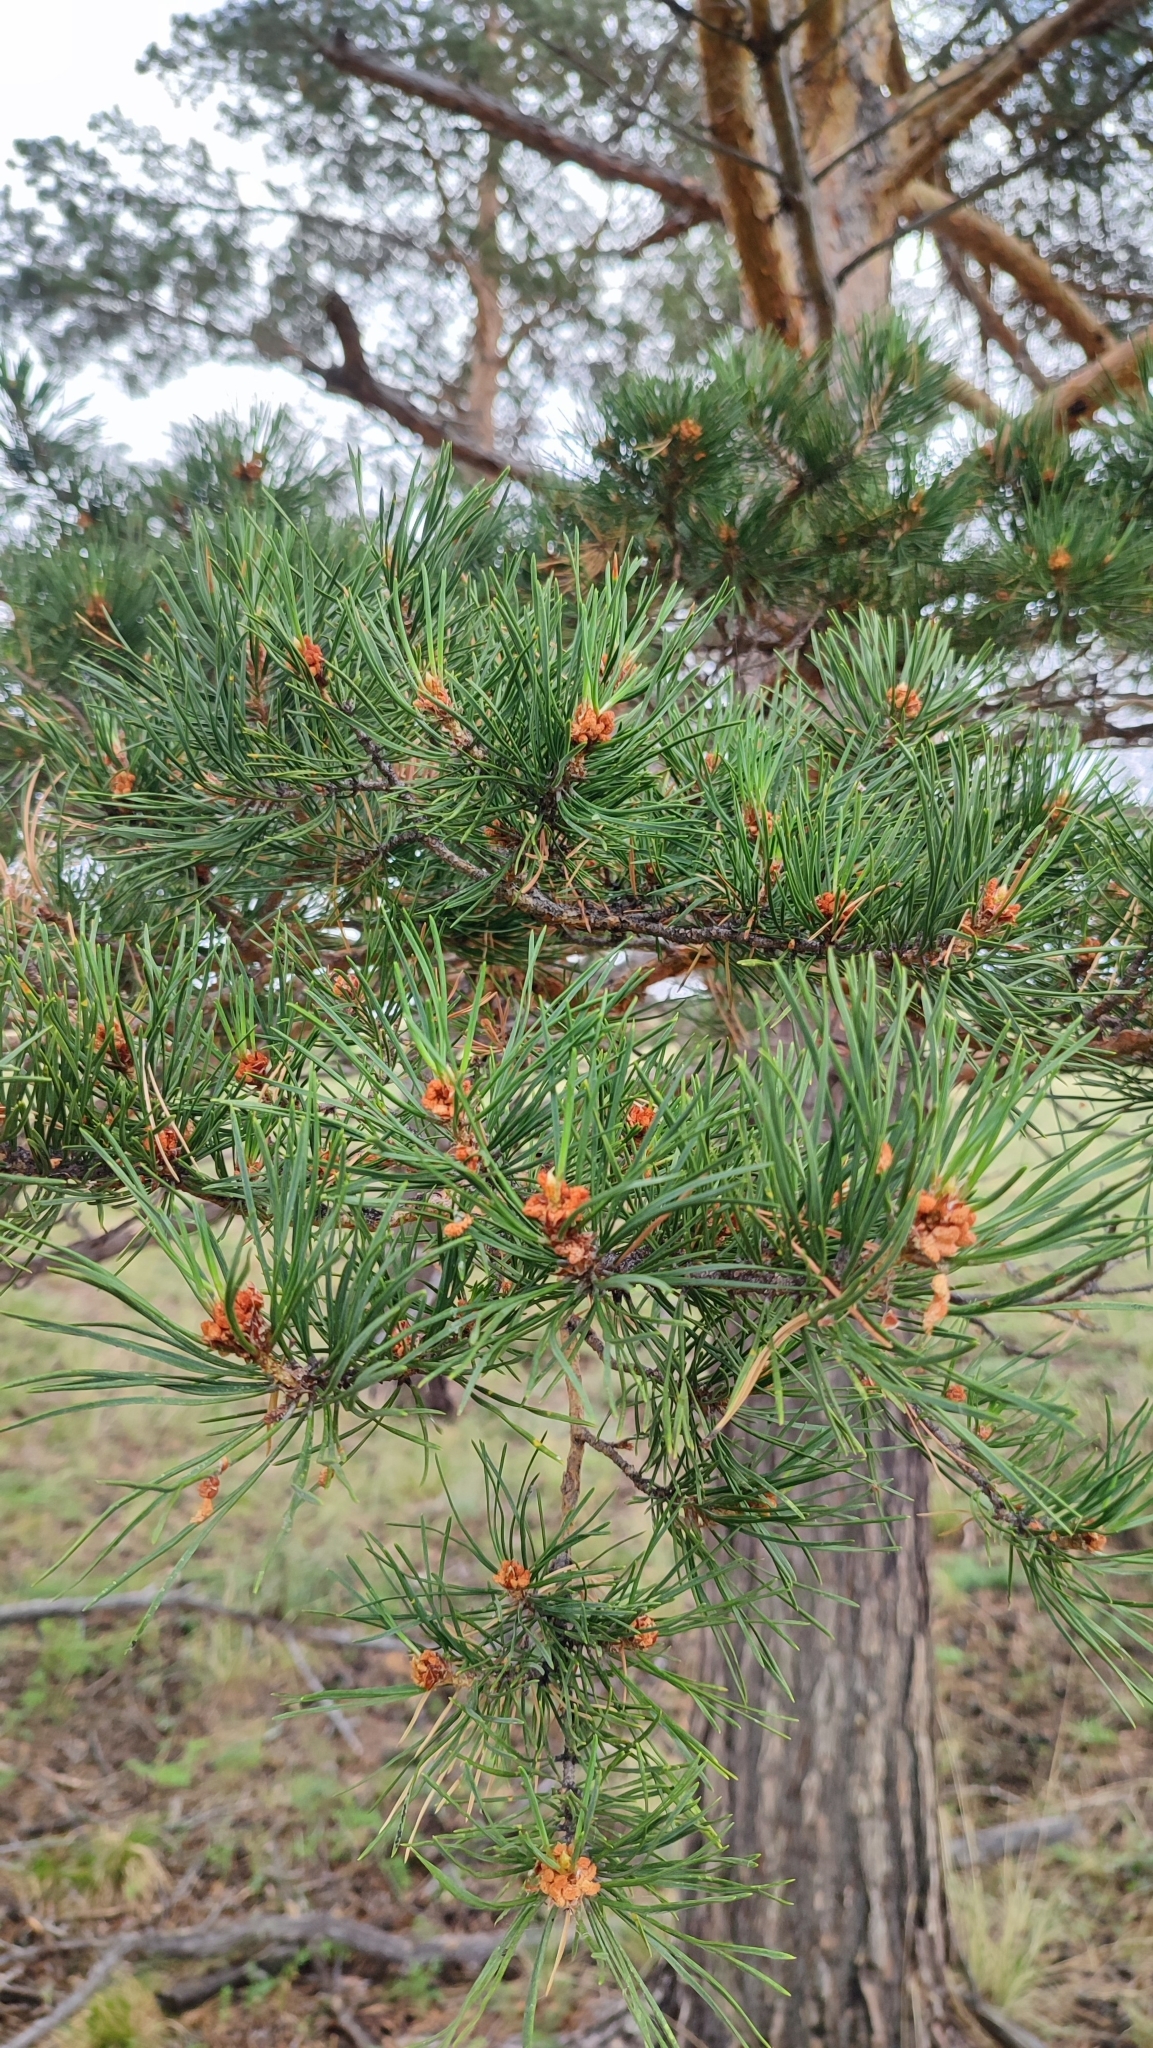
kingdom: Plantae
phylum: Tracheophyta
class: Pinopsida
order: Pinales
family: Pinaceae
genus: Pinus
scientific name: Pinus sylvestris
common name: Scots pine
